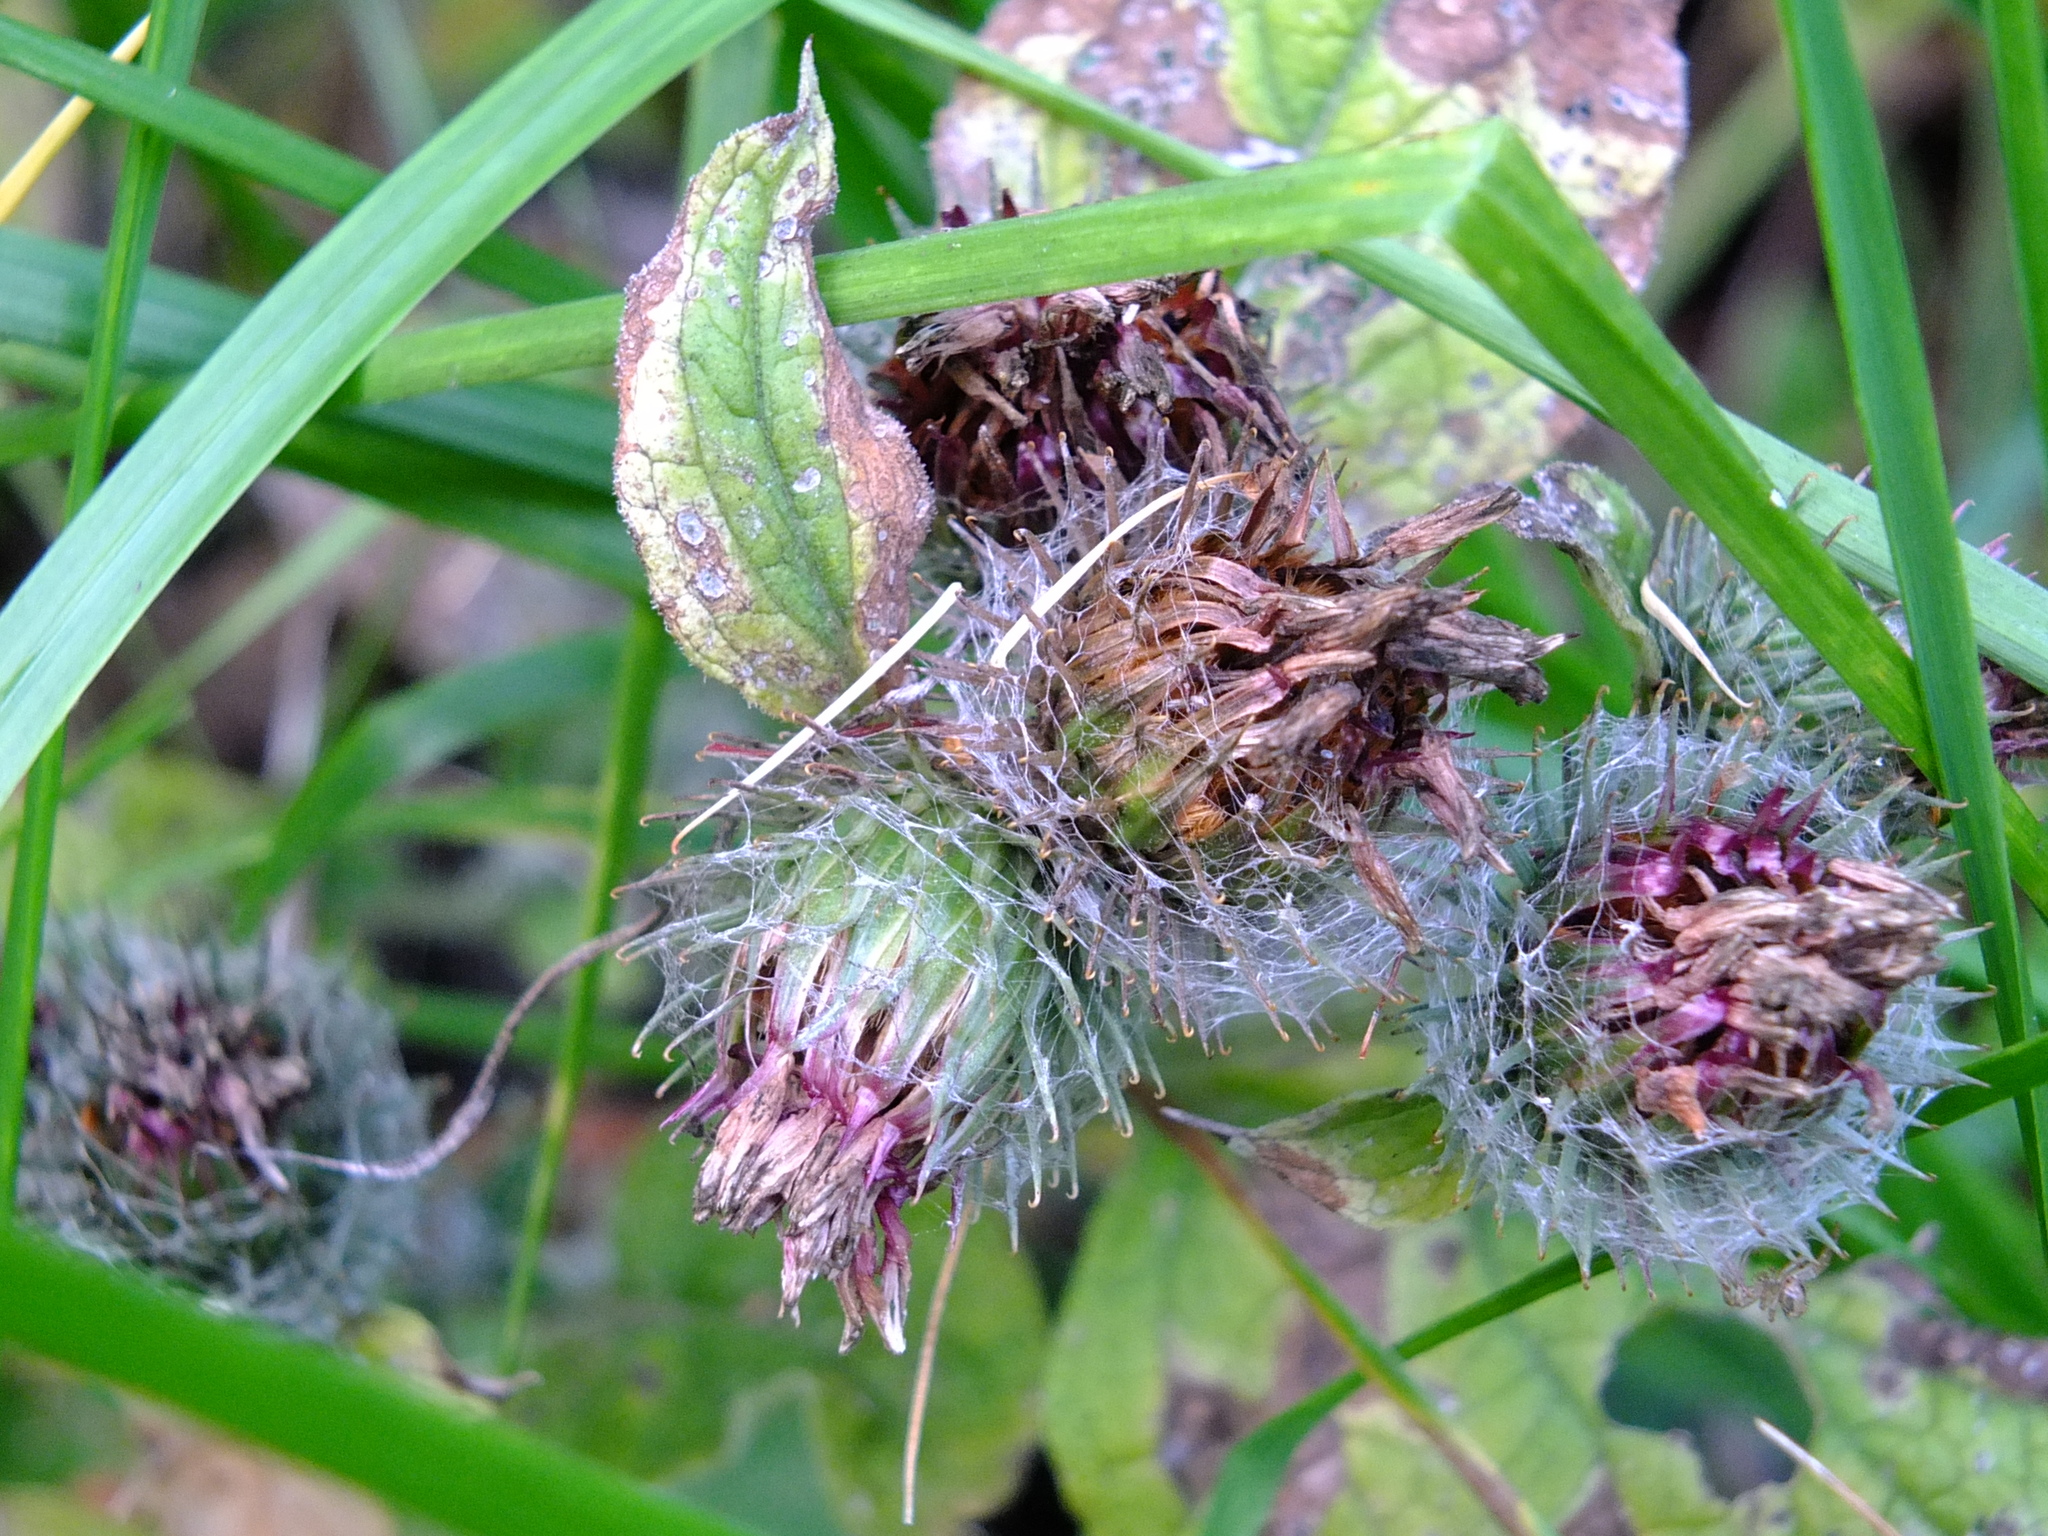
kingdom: Plantae
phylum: Tracheophyta
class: Magnoliopsida
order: Asterales
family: Asteraceae
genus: Arctium
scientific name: Arctium tomentosum
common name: Woolly burdock
